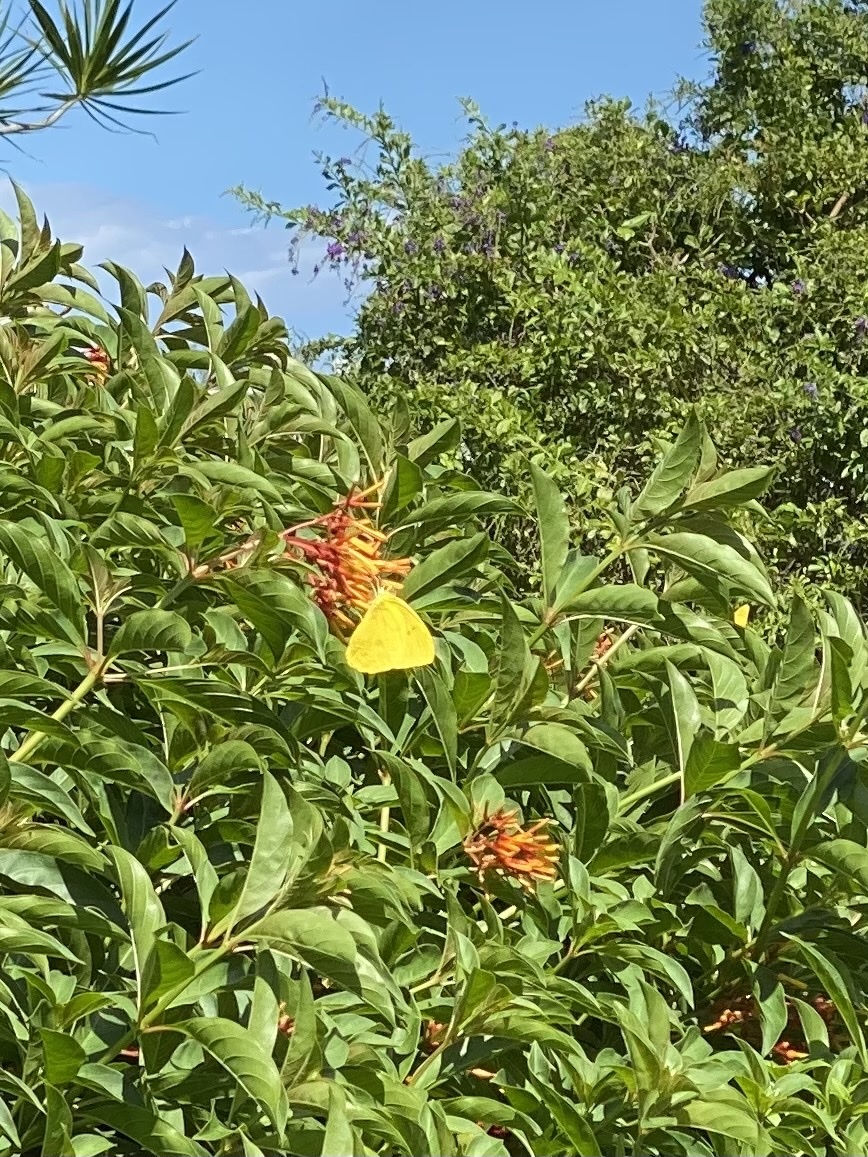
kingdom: Animalia
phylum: Arthropoda
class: Insecta
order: Lepidoptera
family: Pieridae
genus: Phoebis
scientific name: Phoebis philea
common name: Orange-barred giant sulphur
